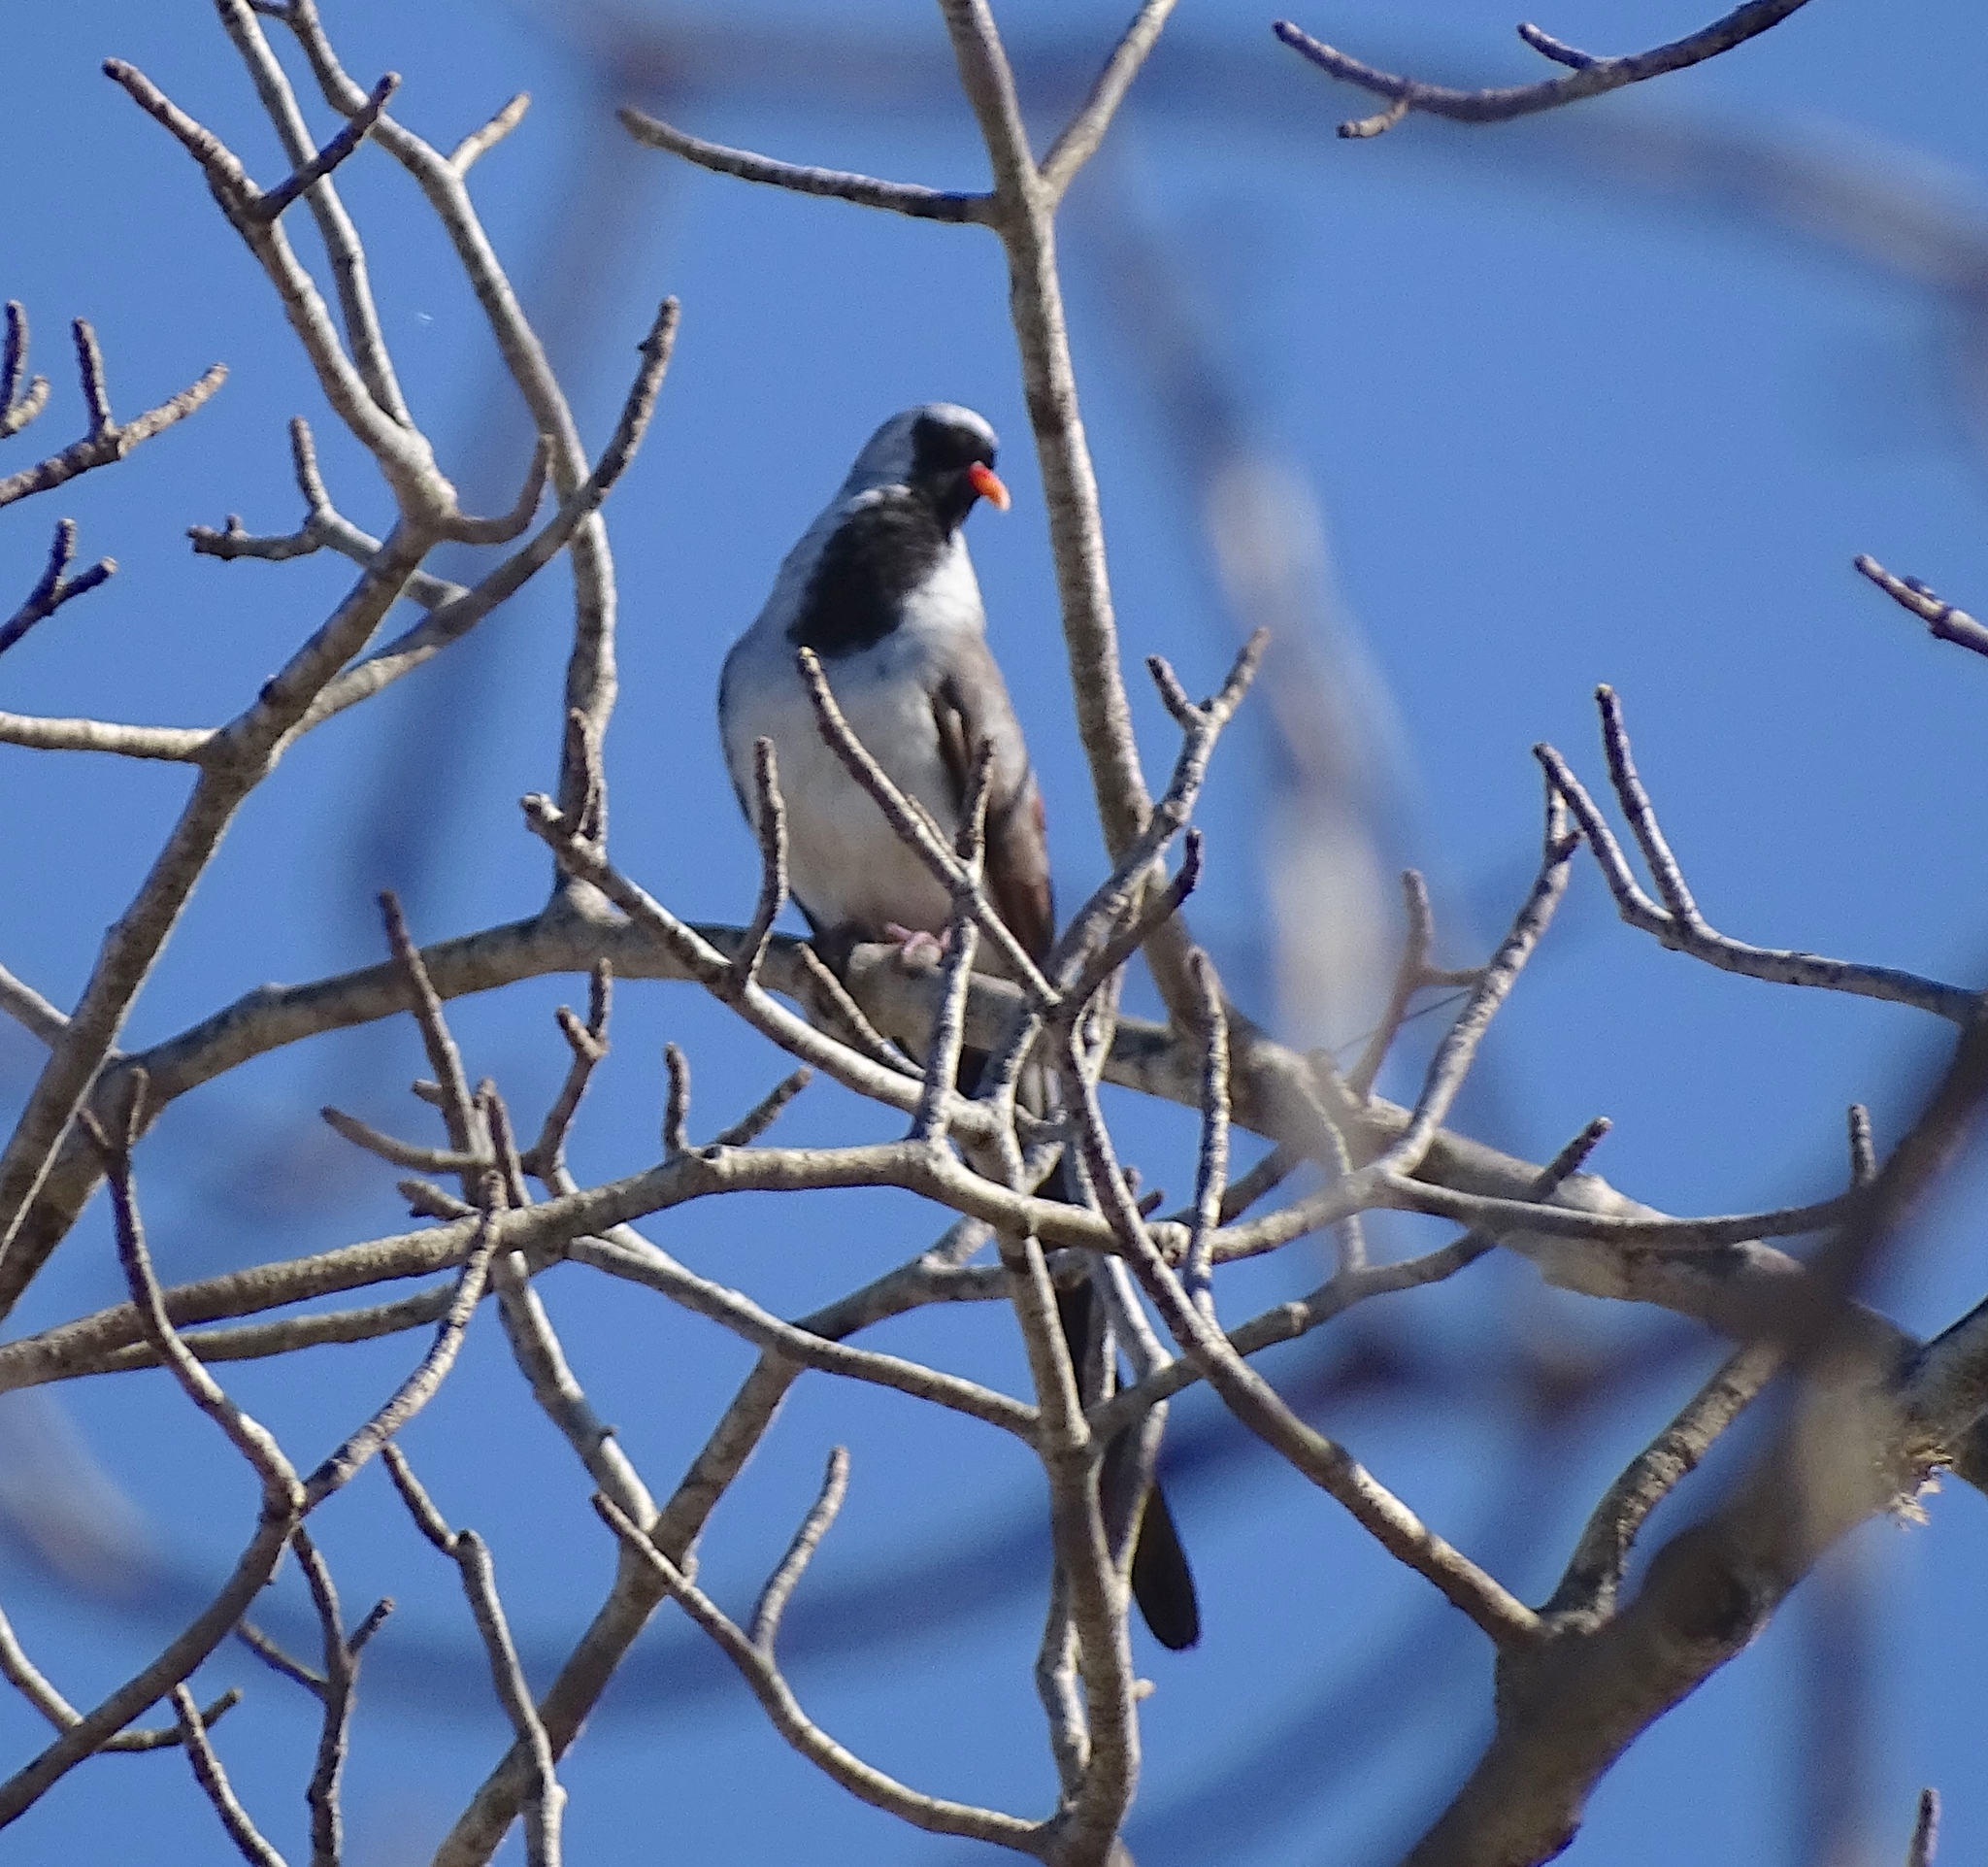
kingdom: Animalia
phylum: Chordata
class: Aves
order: Columbiformes
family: Columbidae
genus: Oena
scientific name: Oena capensis
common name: Namaqua dove
